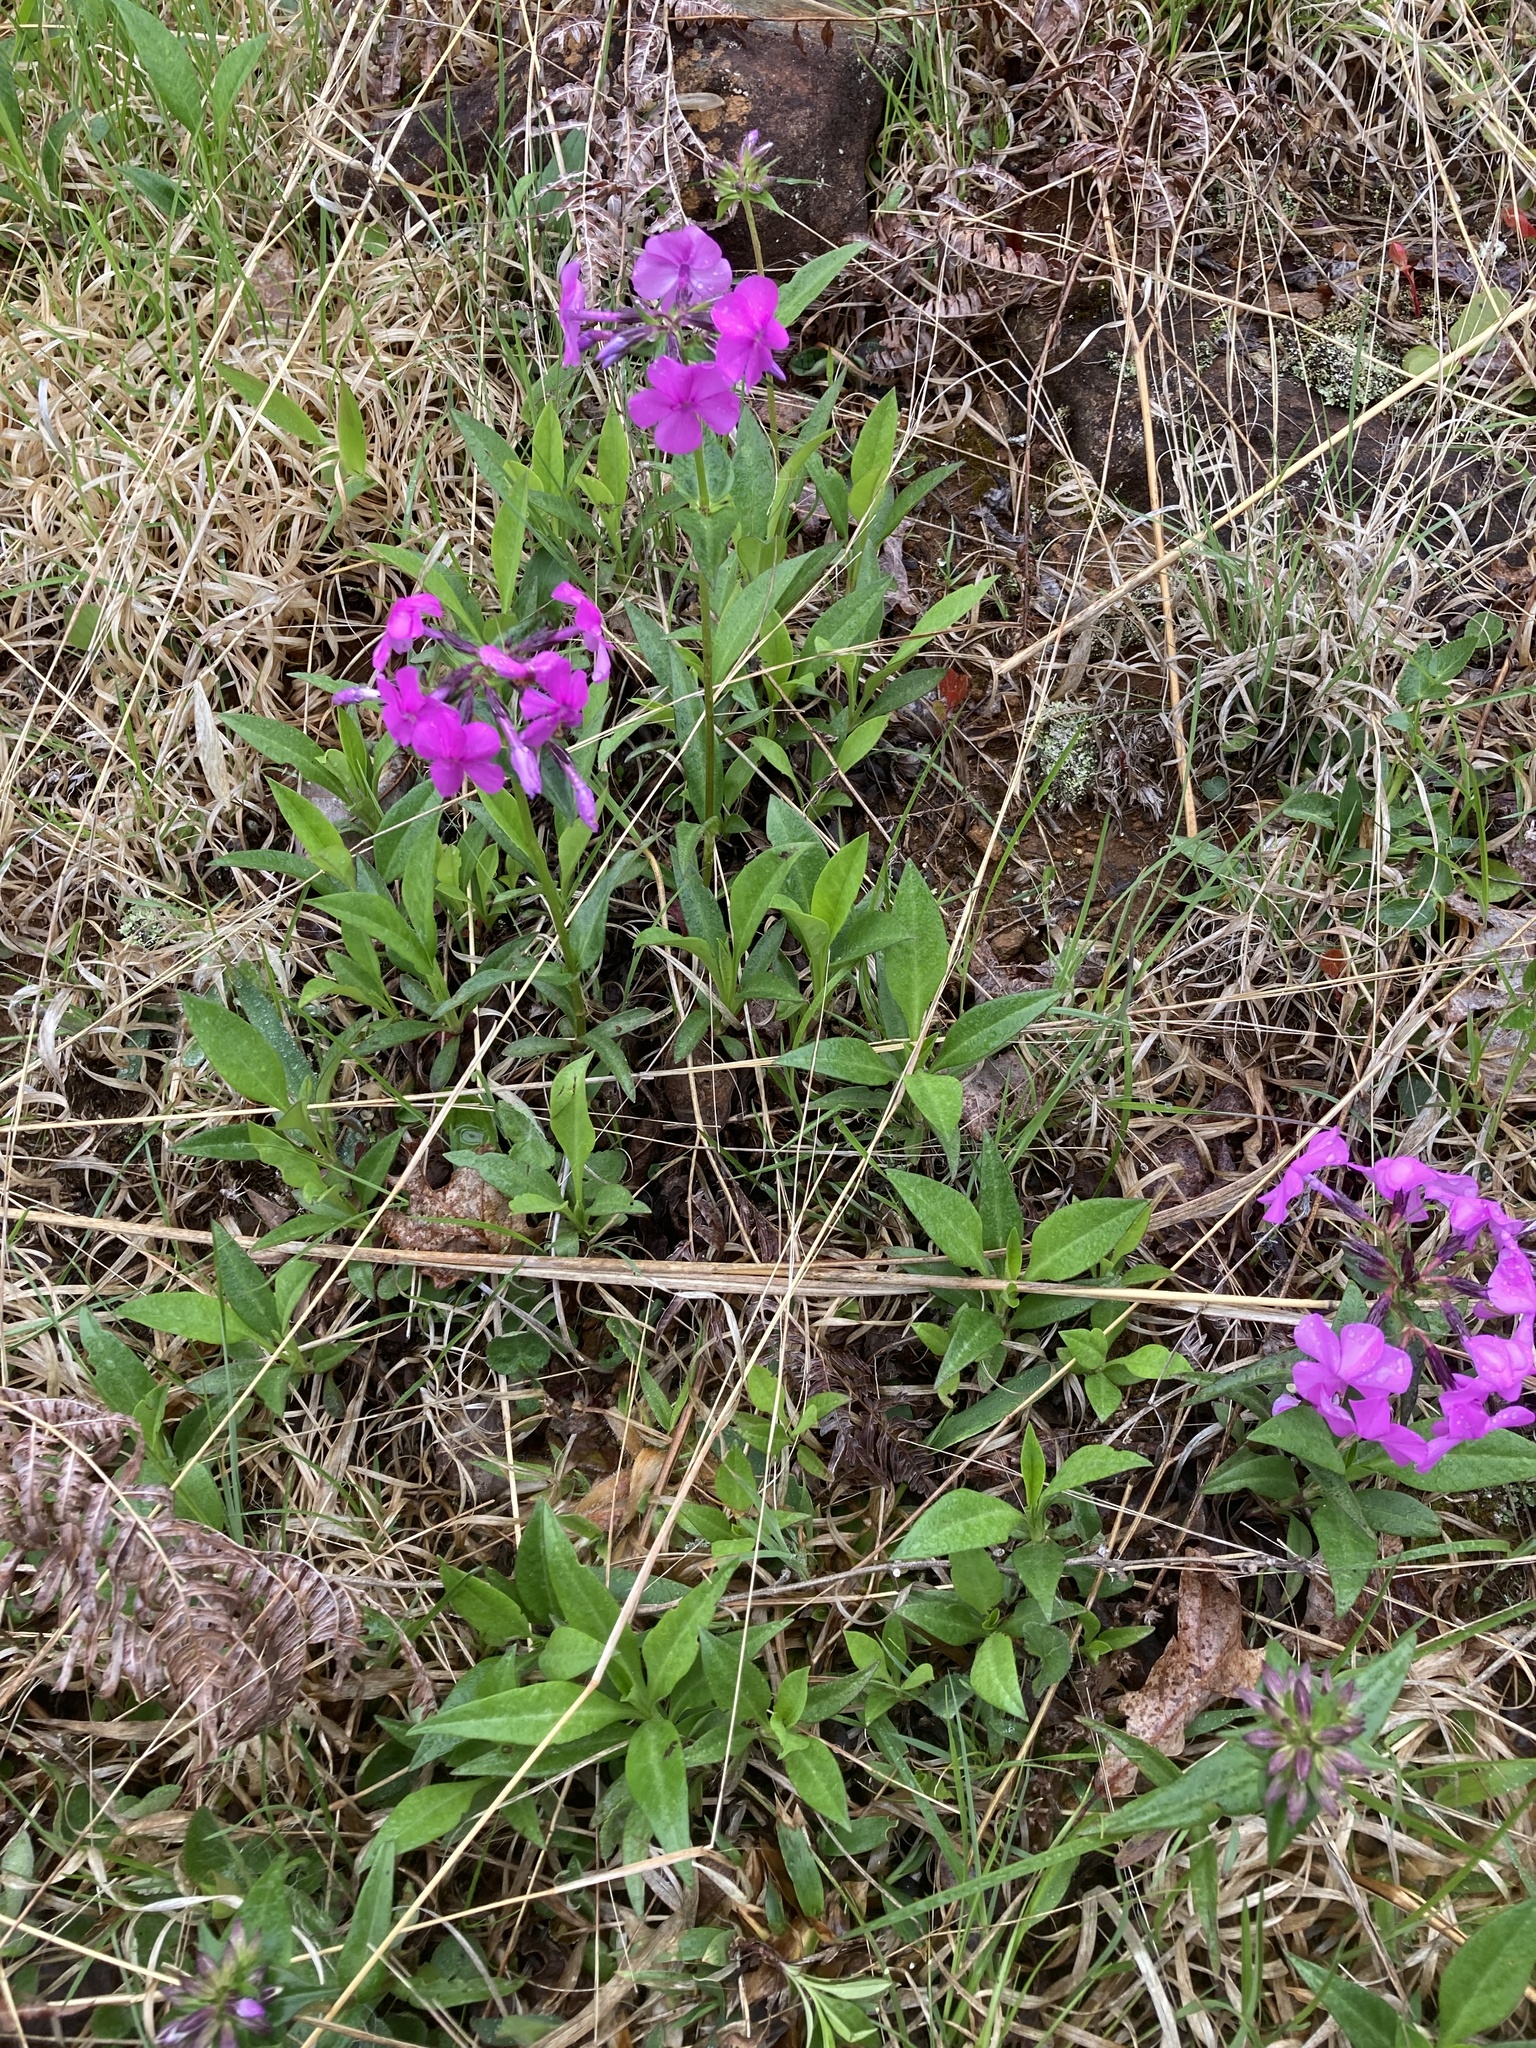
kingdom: Plantae
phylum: Tracheophyta
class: Magnoliopsida
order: Ericales
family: Polemoniaceae
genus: Phlox
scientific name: Phlox ovata
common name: Mountain phlox
